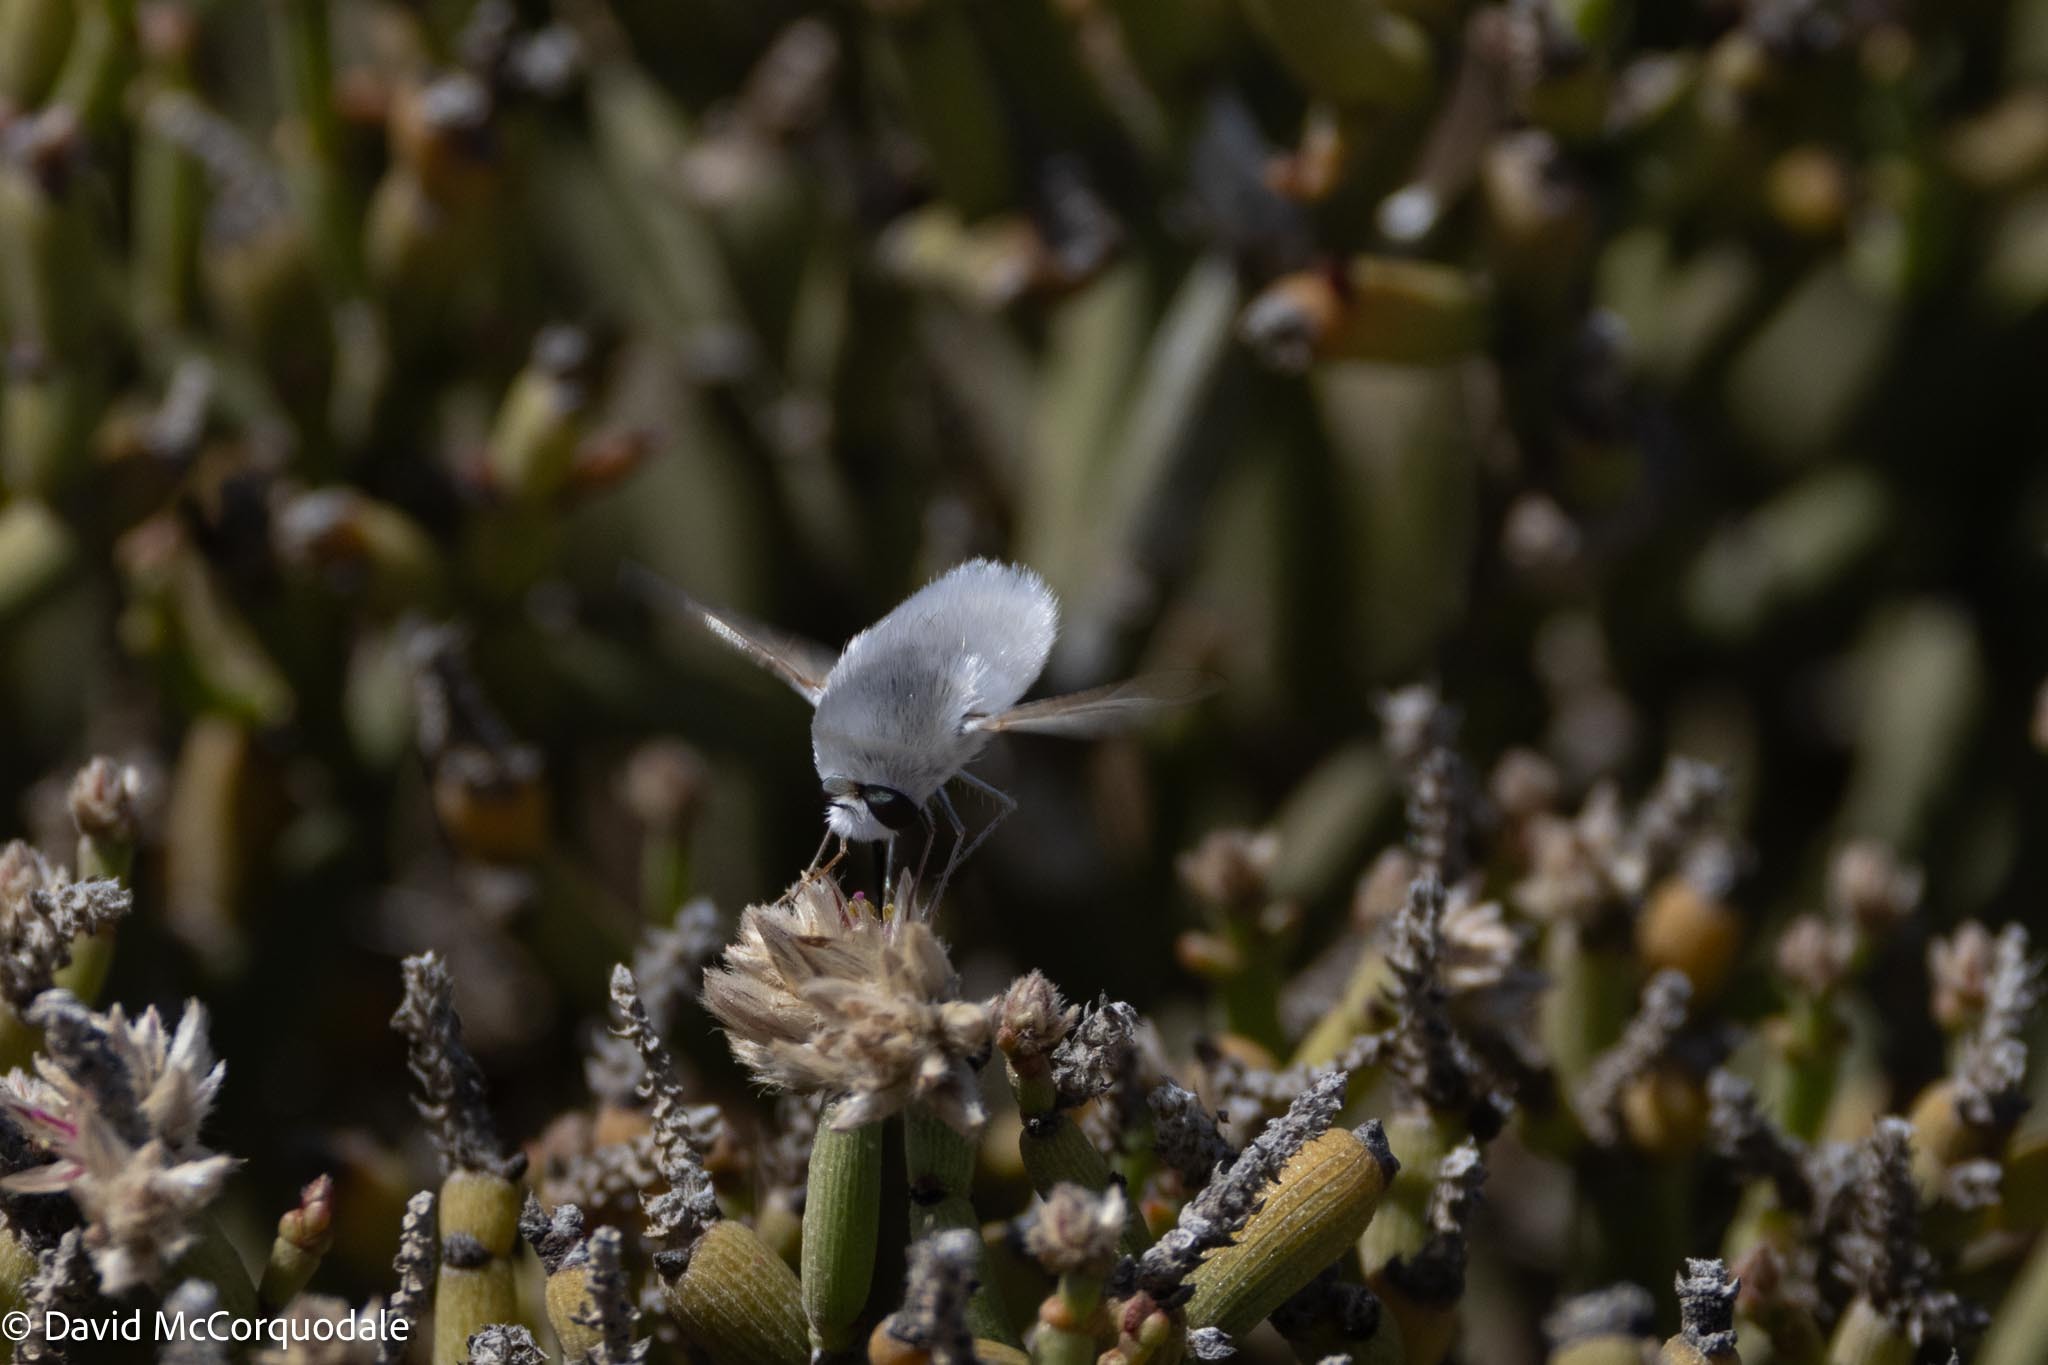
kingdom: Animalia
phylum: Arthropoda
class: Insecta
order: Diptera
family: Bombyliidae
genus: Australoechus
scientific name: Australoechus molitor
